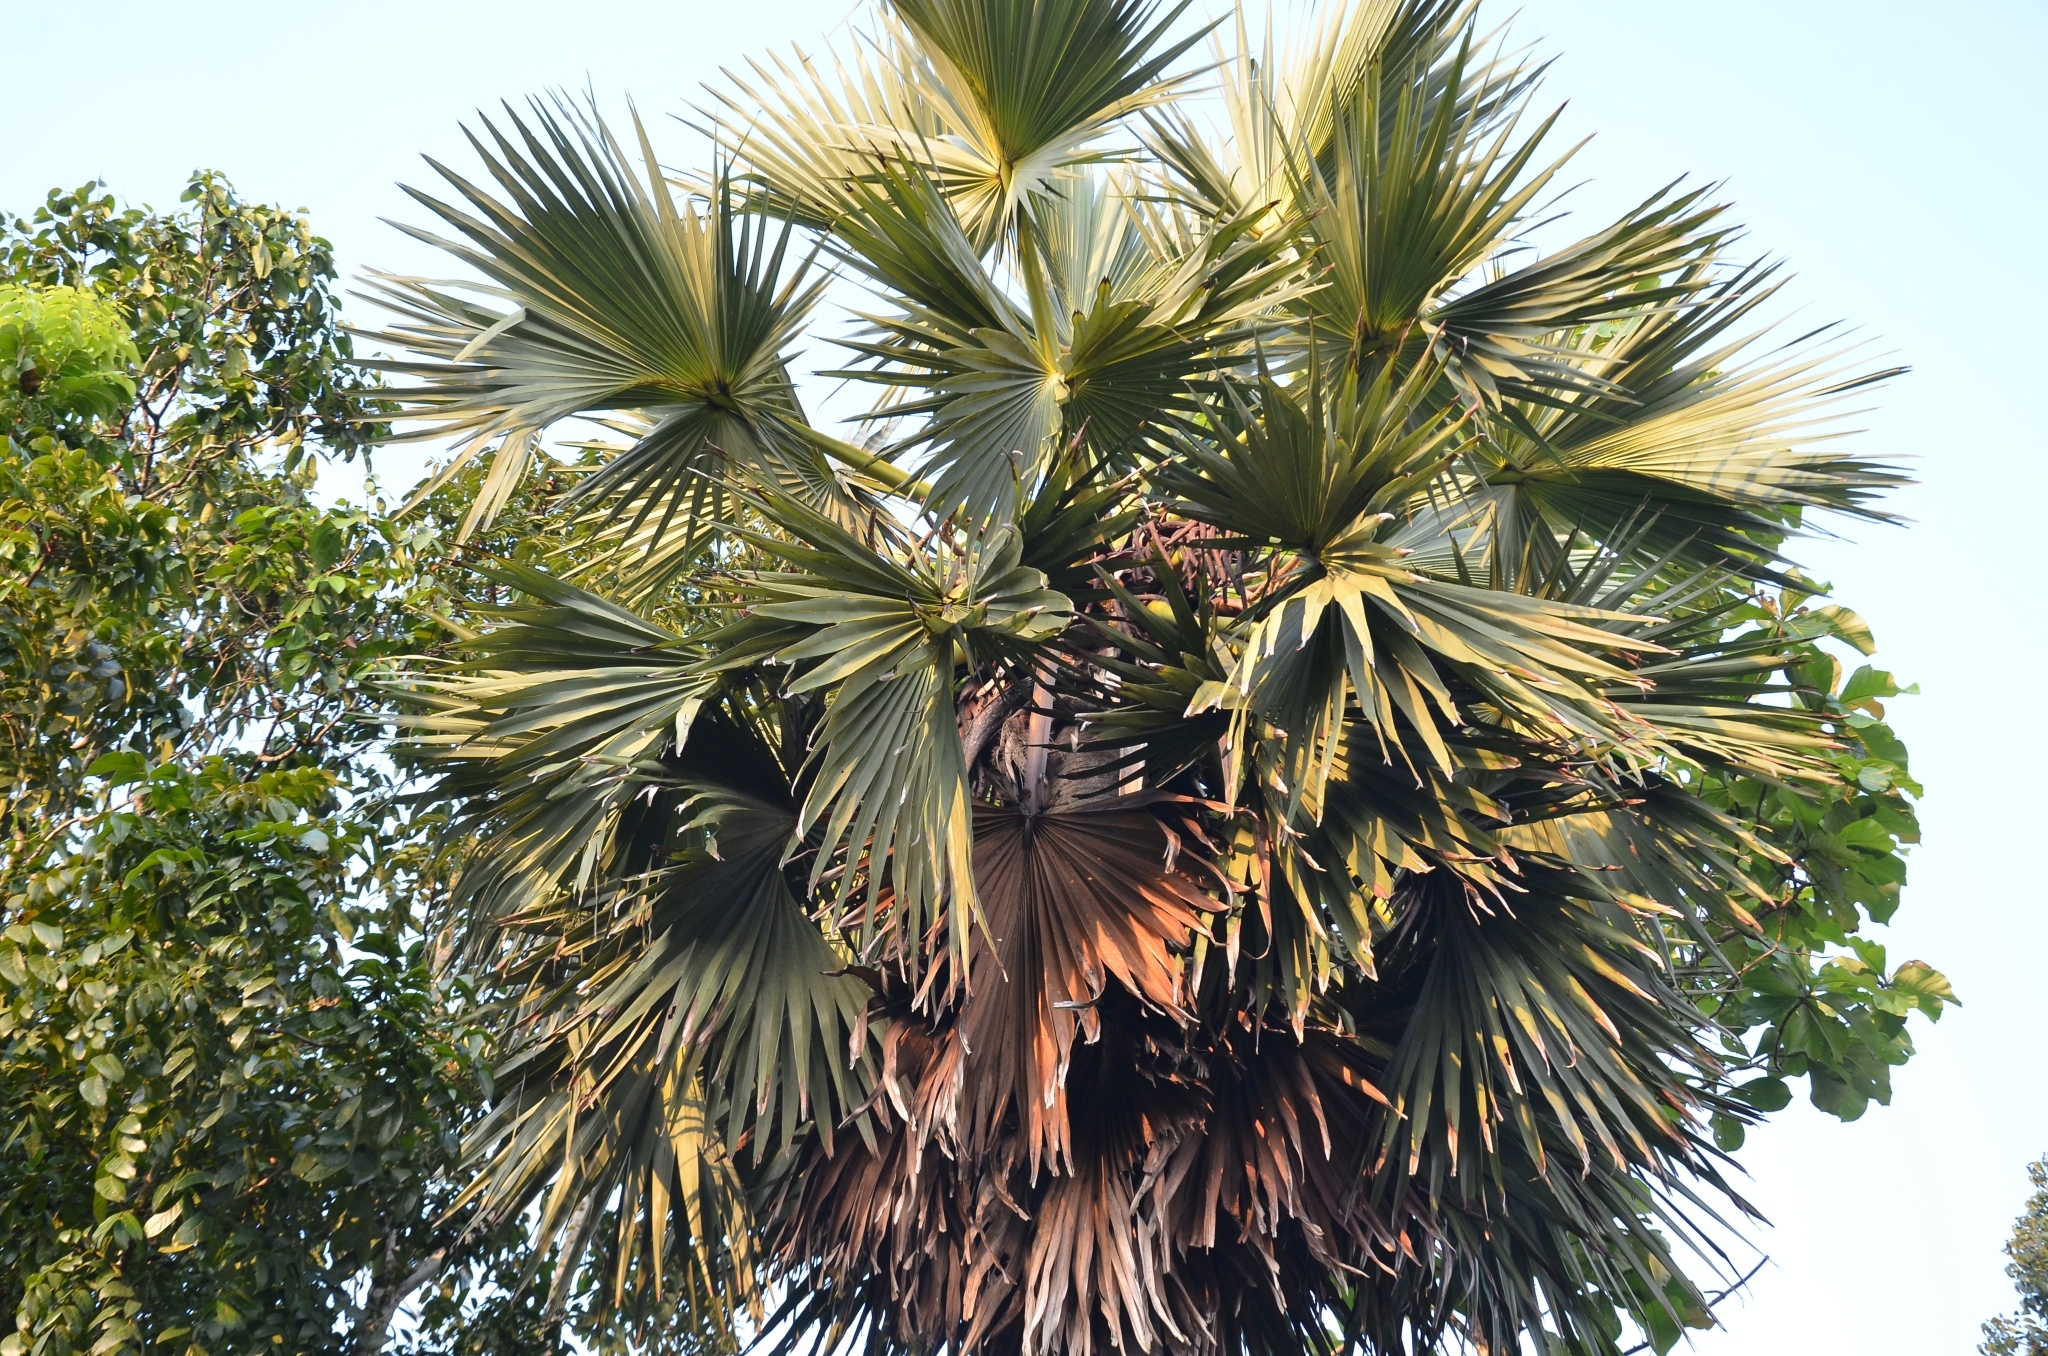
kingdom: Plantae
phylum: Tracheophyta
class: Liliopsida
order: Arecales
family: Arecaceae
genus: Borassus
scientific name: Borassus flabellifer
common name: Palmyra palm
